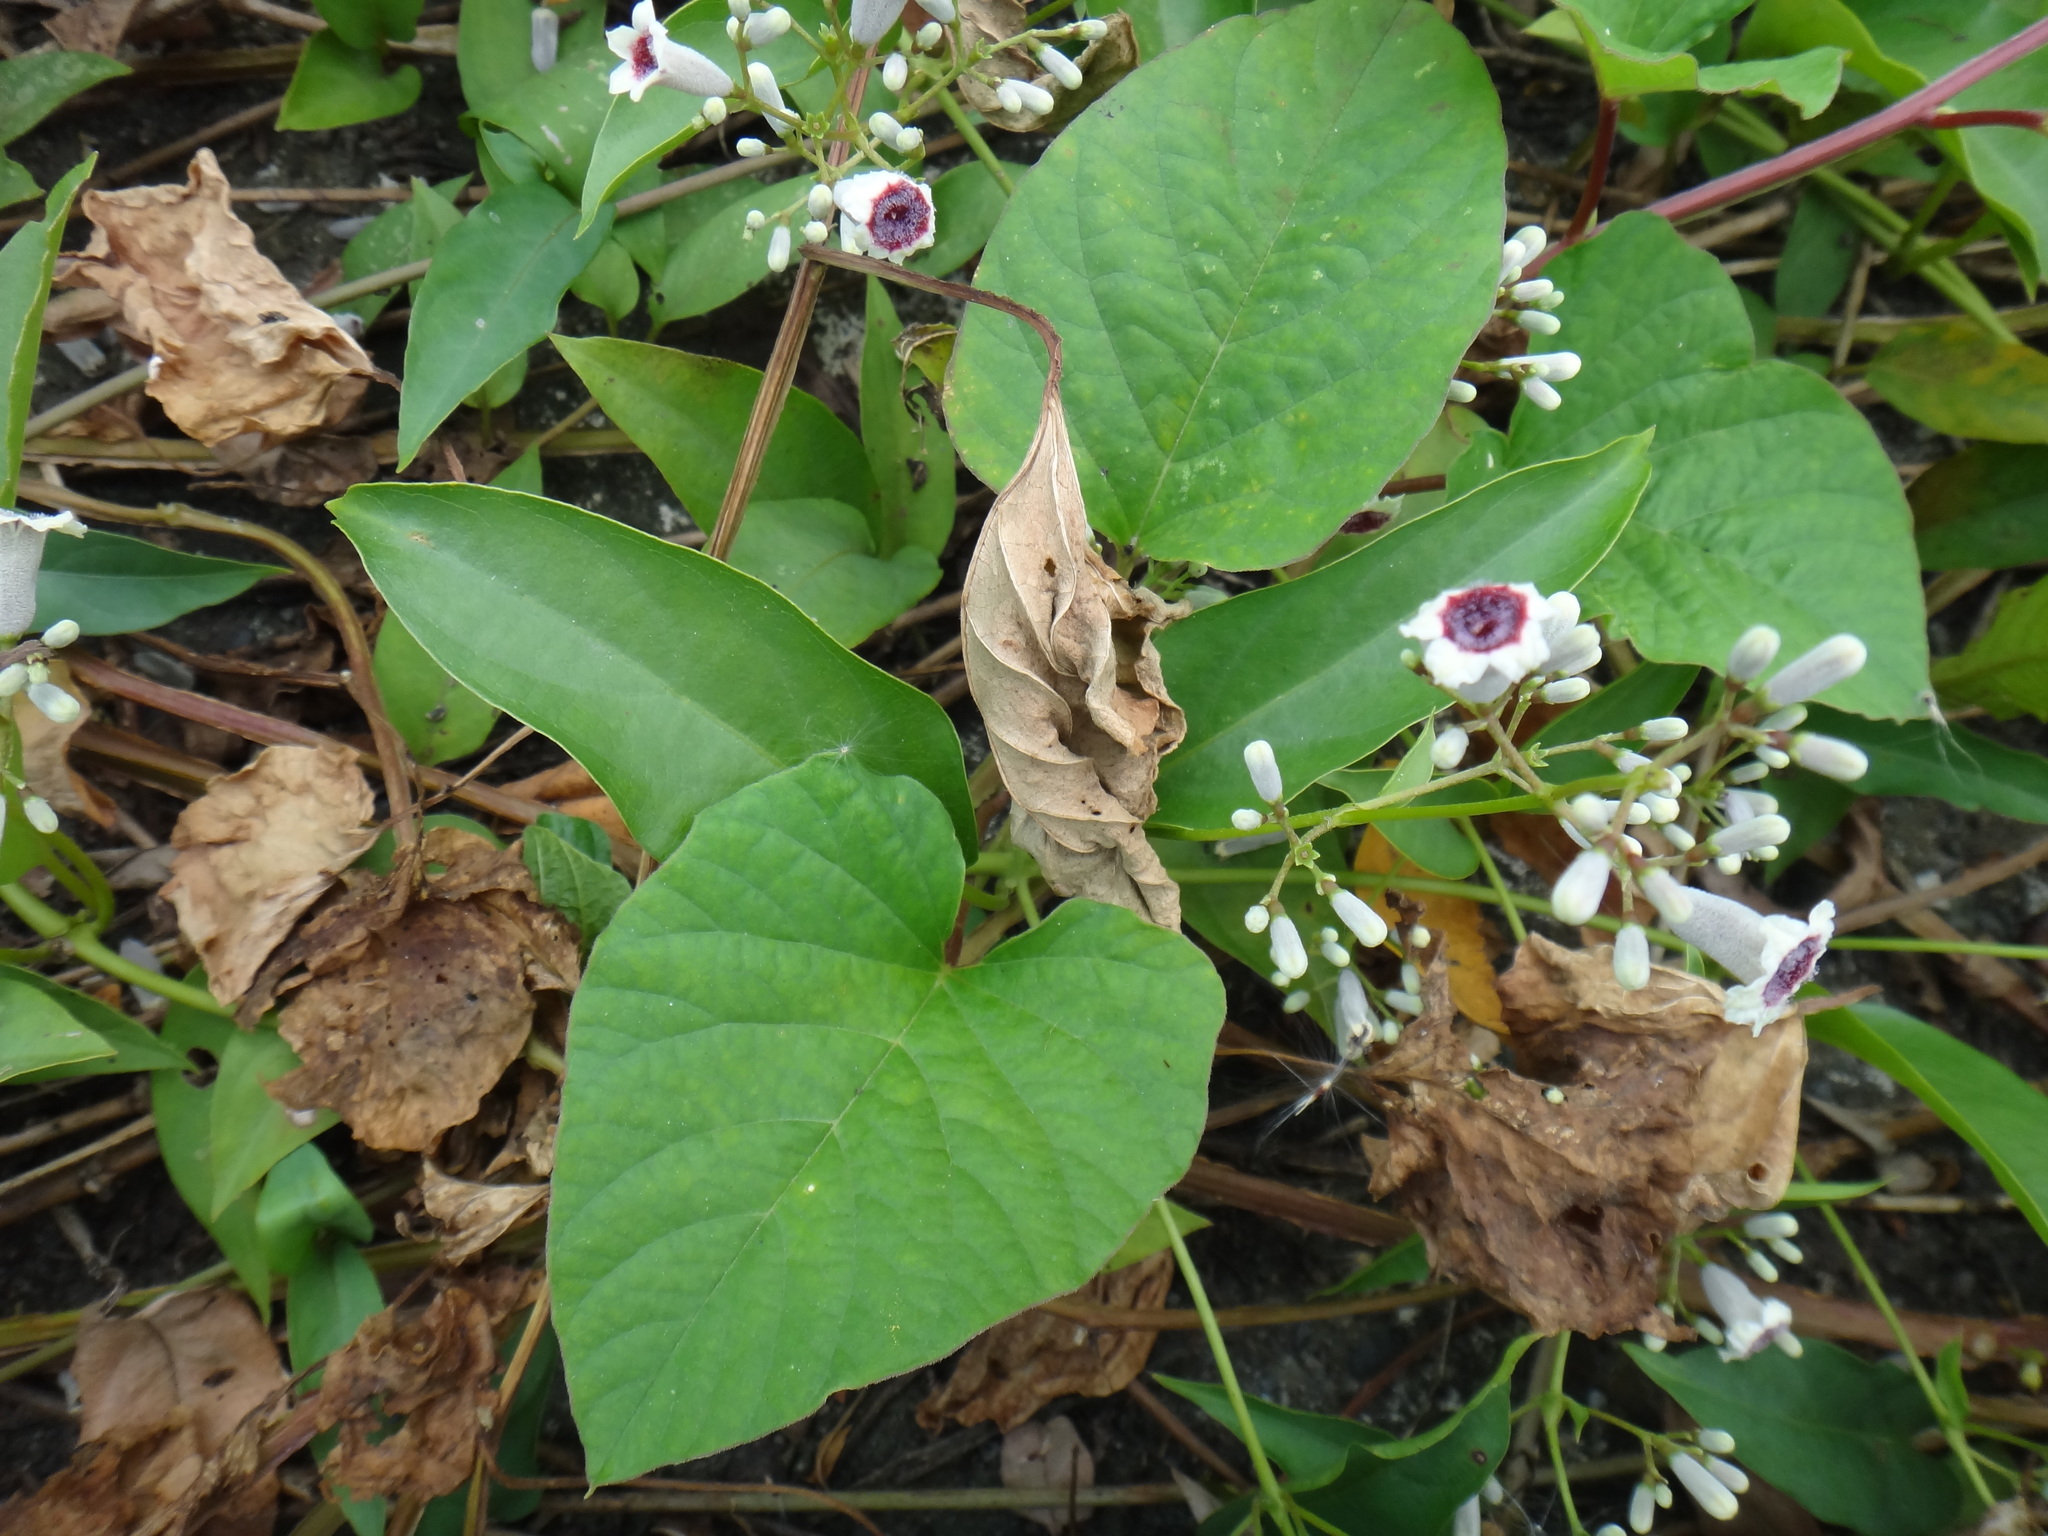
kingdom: Plantae
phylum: Tracheophyta
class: Magnoliopsida
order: Gentianales
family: Rubiaceae
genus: Paederia
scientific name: Paederia foetida
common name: Stinkvine
